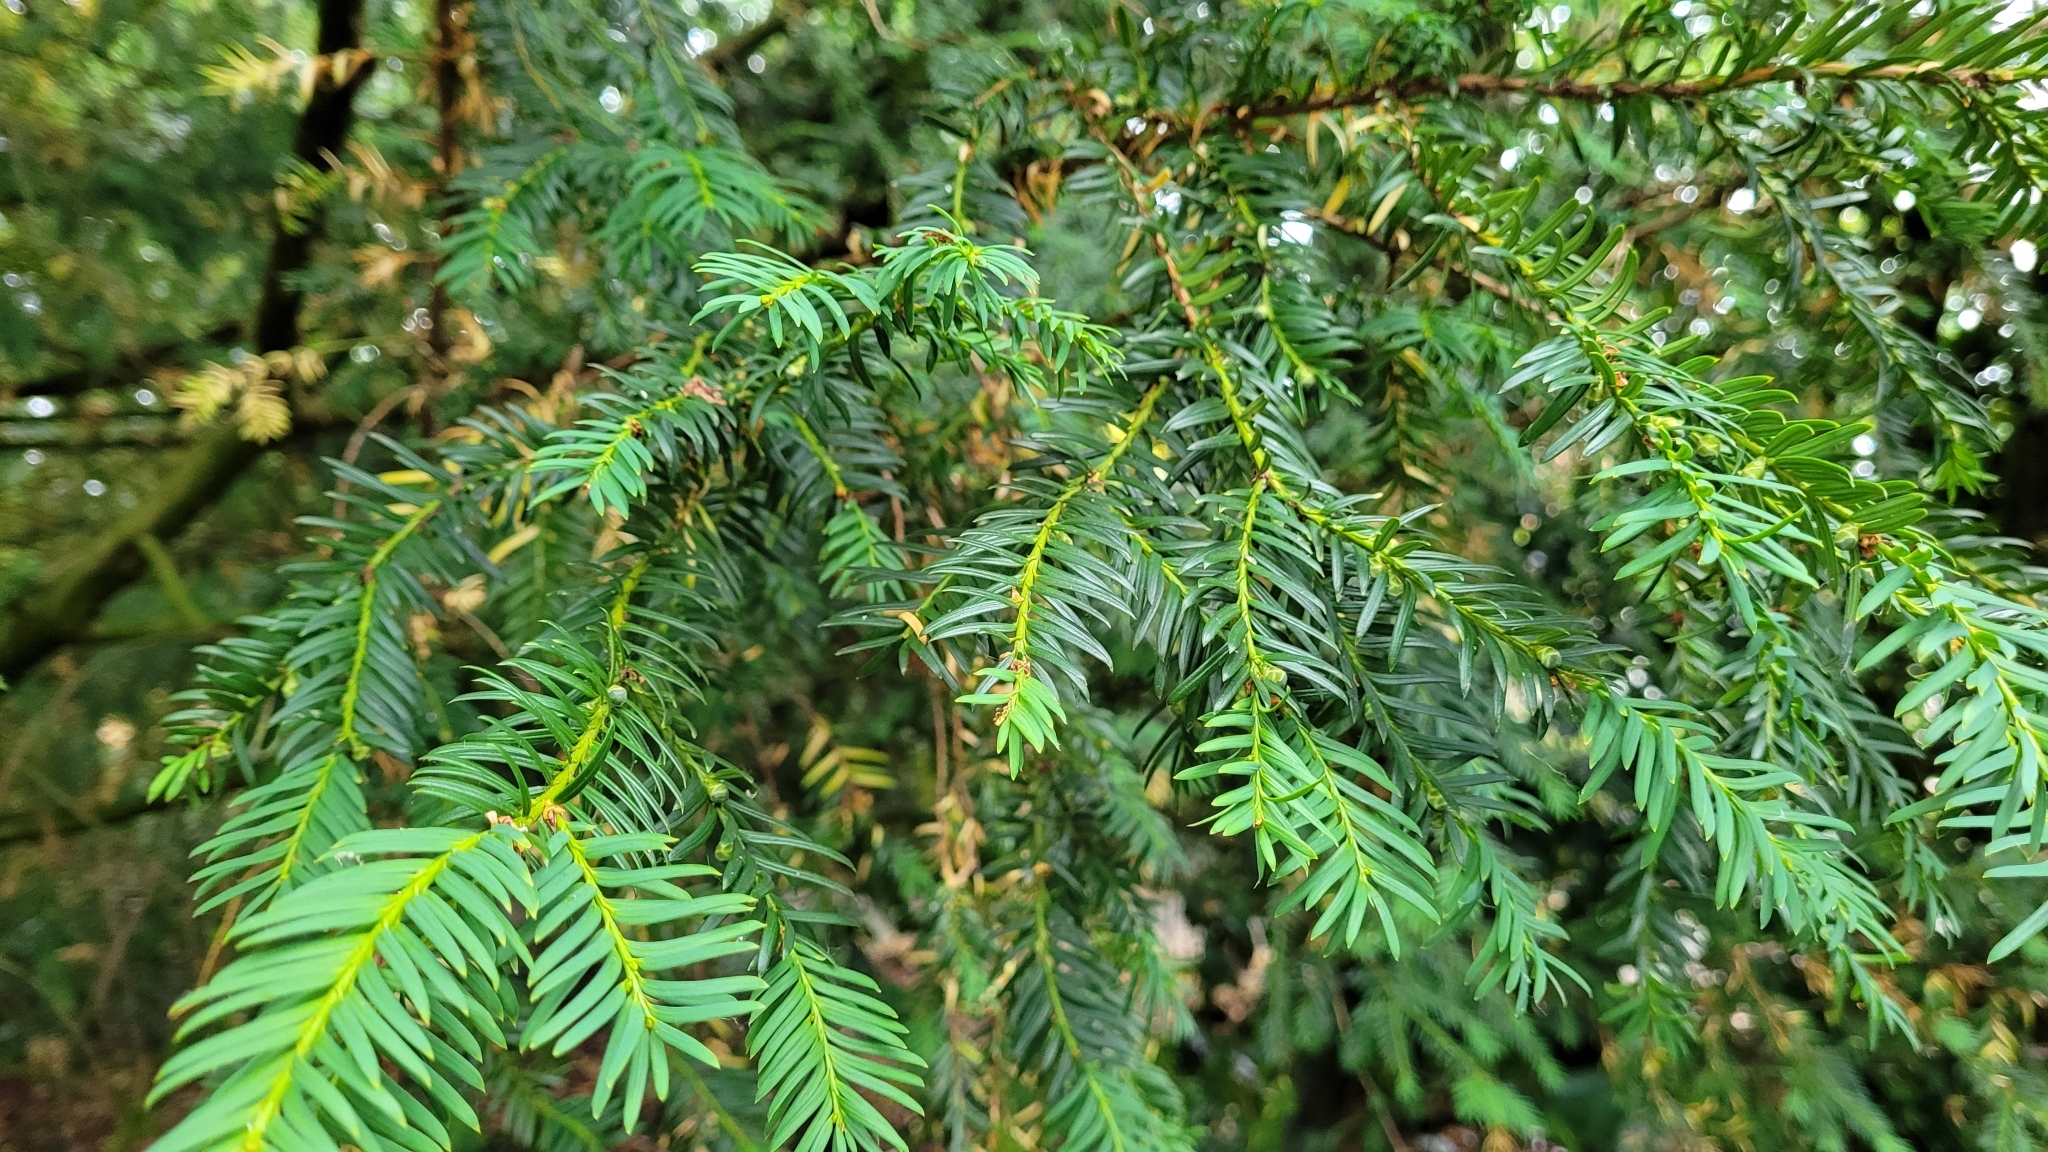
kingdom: Plantae
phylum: Tracheophyta
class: Pinopsida
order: Pinales
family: Taxaceae
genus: Taxus
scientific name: Taxus baccata
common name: Yew
